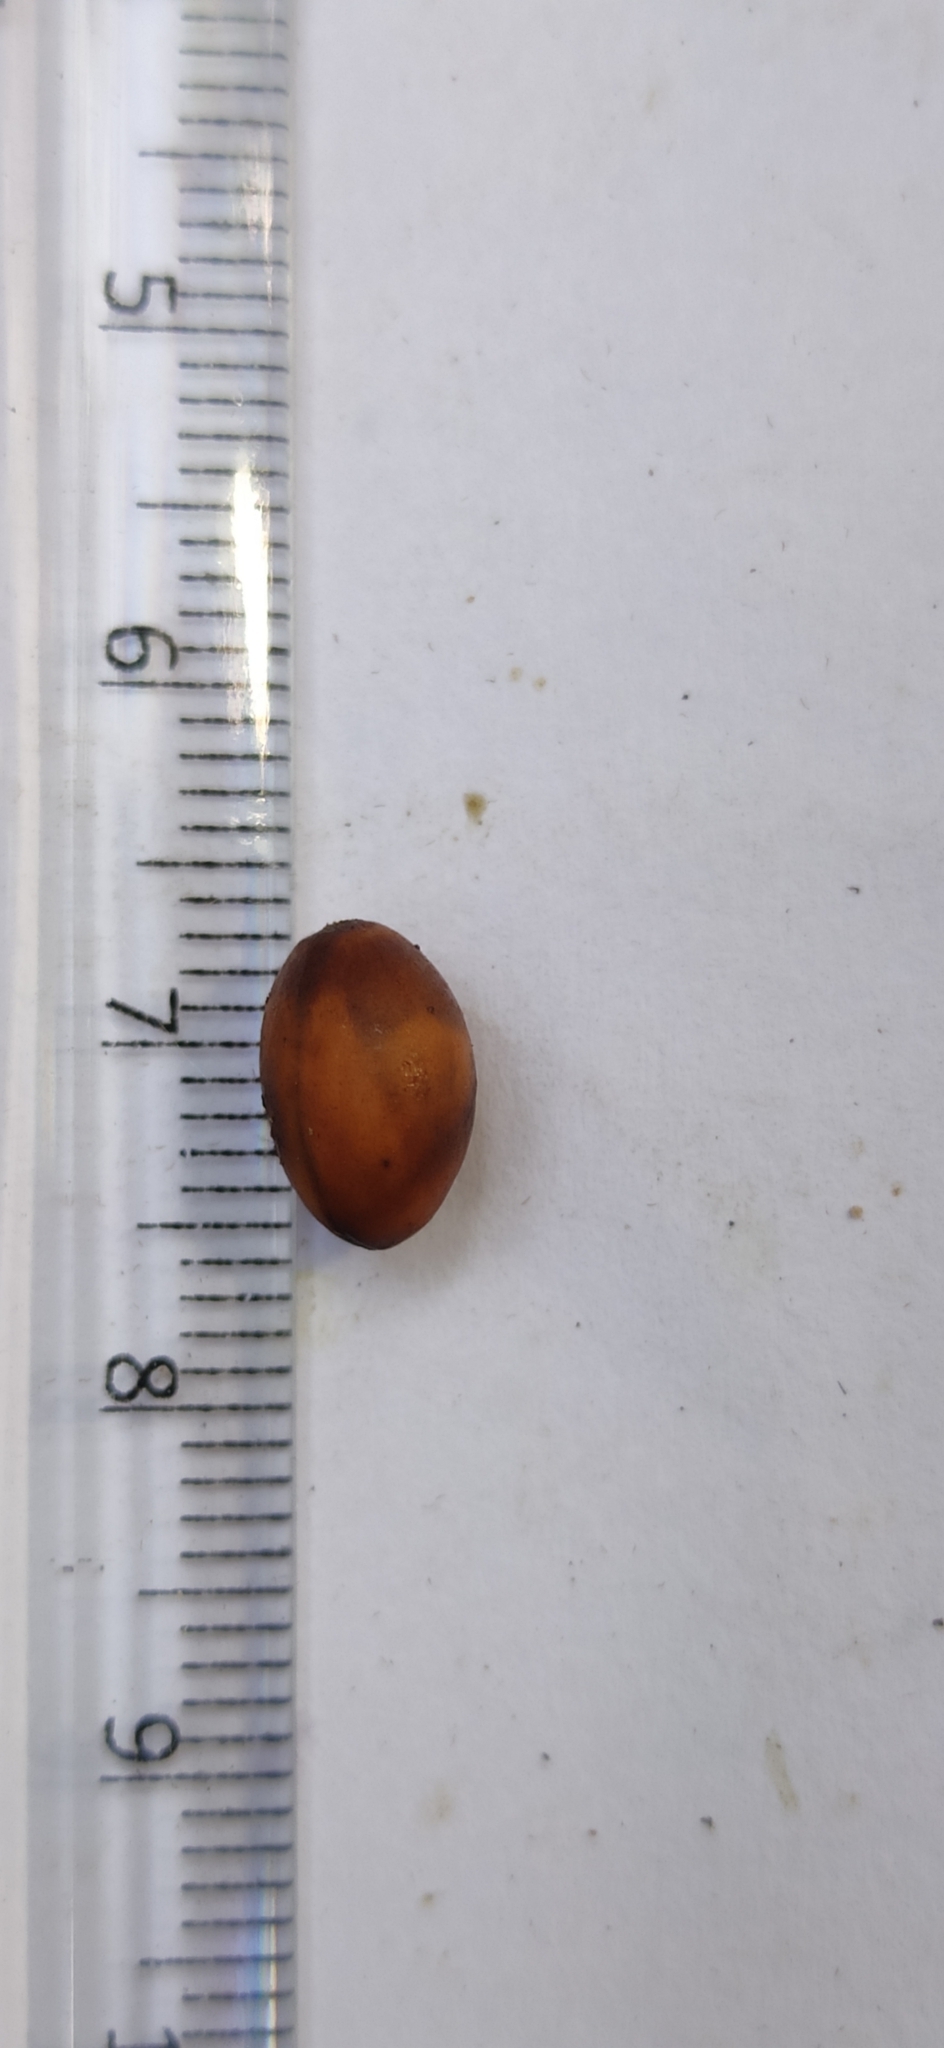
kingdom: Plantae
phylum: Tracheophyta
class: Magnoliopsida
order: Laurales
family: Lauraceae
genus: Litsea
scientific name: Litsea coriacea
